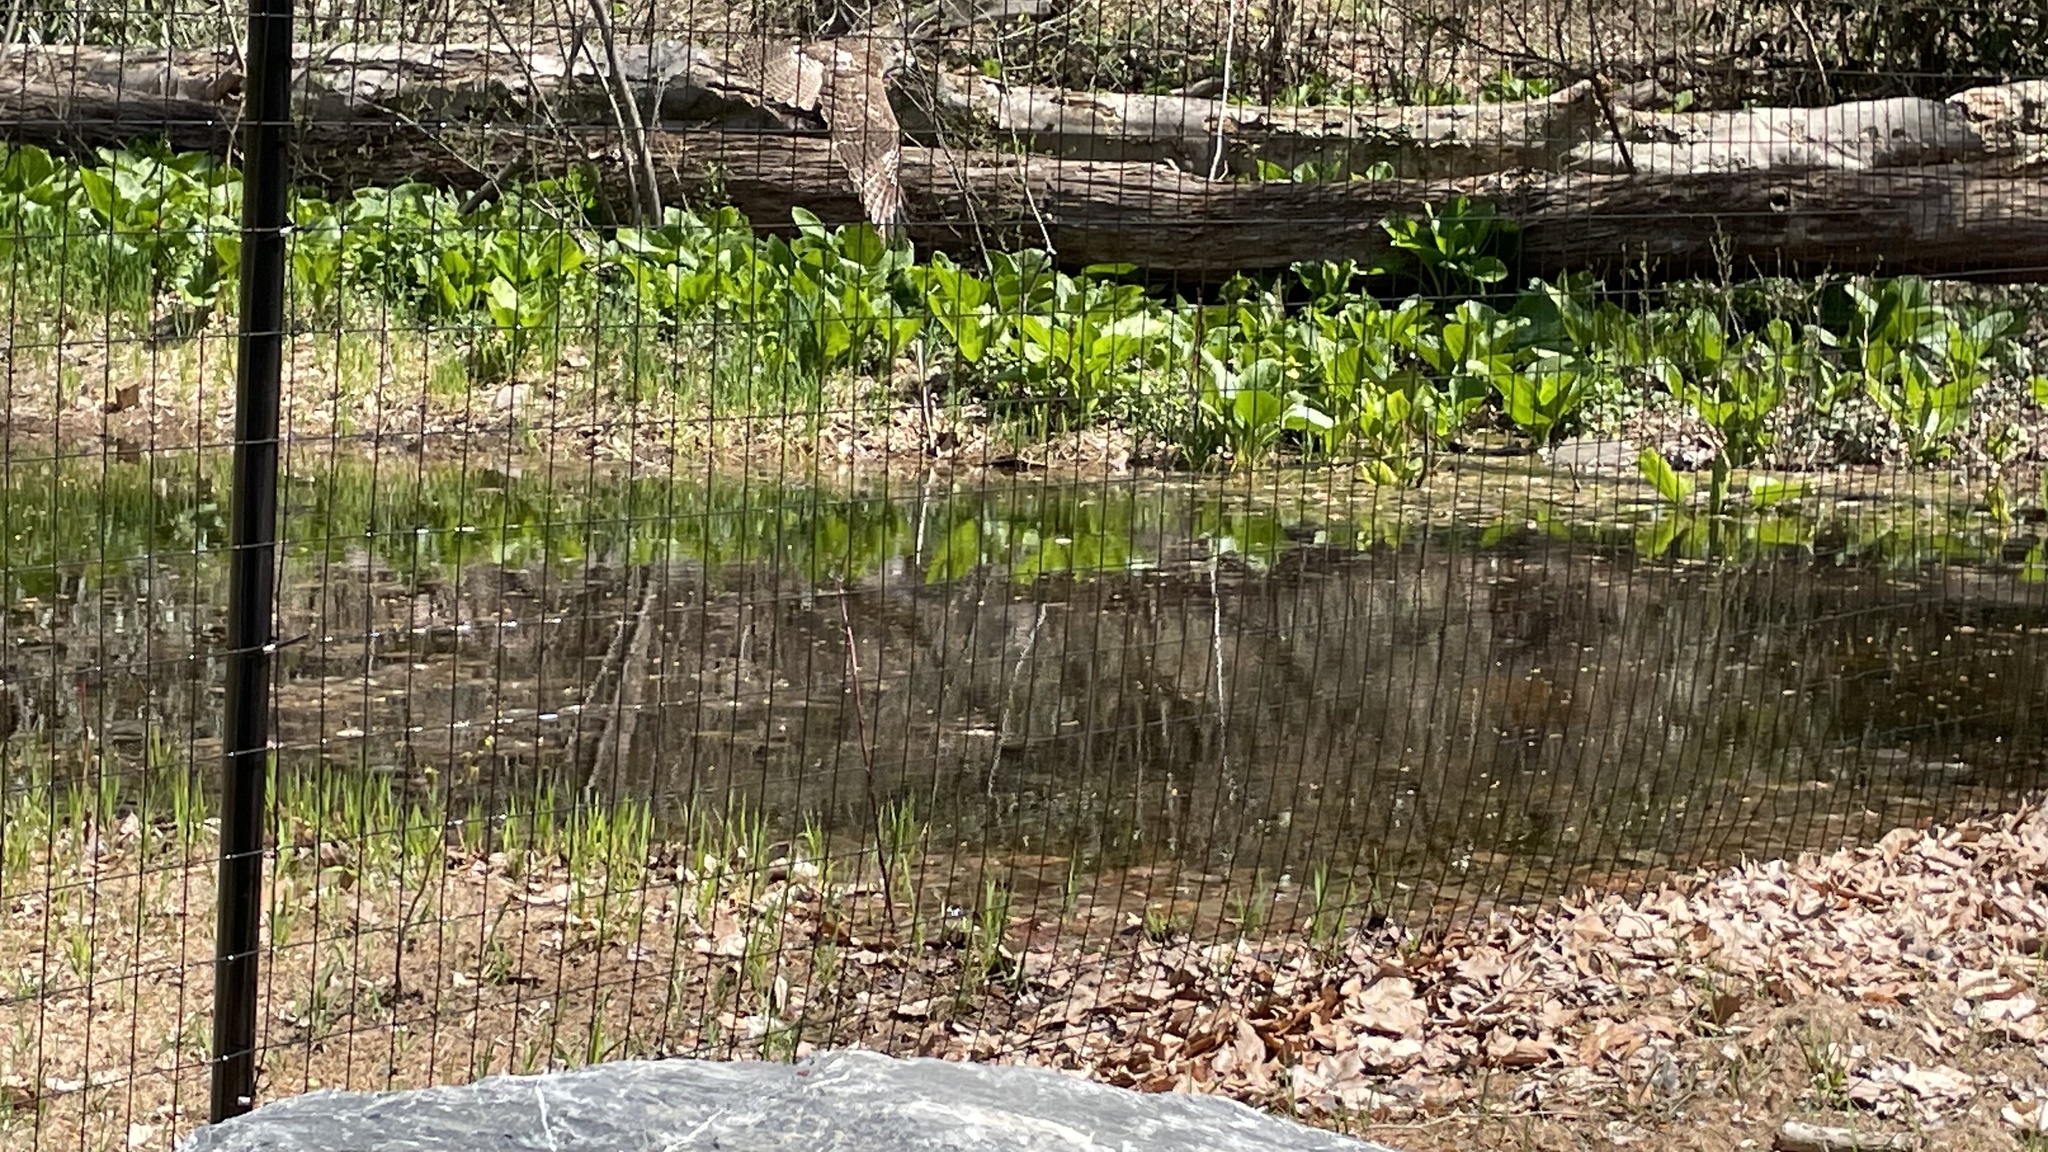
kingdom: Animalia
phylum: Chordata
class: Aves
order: Accipitriformes
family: Accipitridae
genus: Buteo
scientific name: Buteo jamaicensis
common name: Red-tailed hawk
